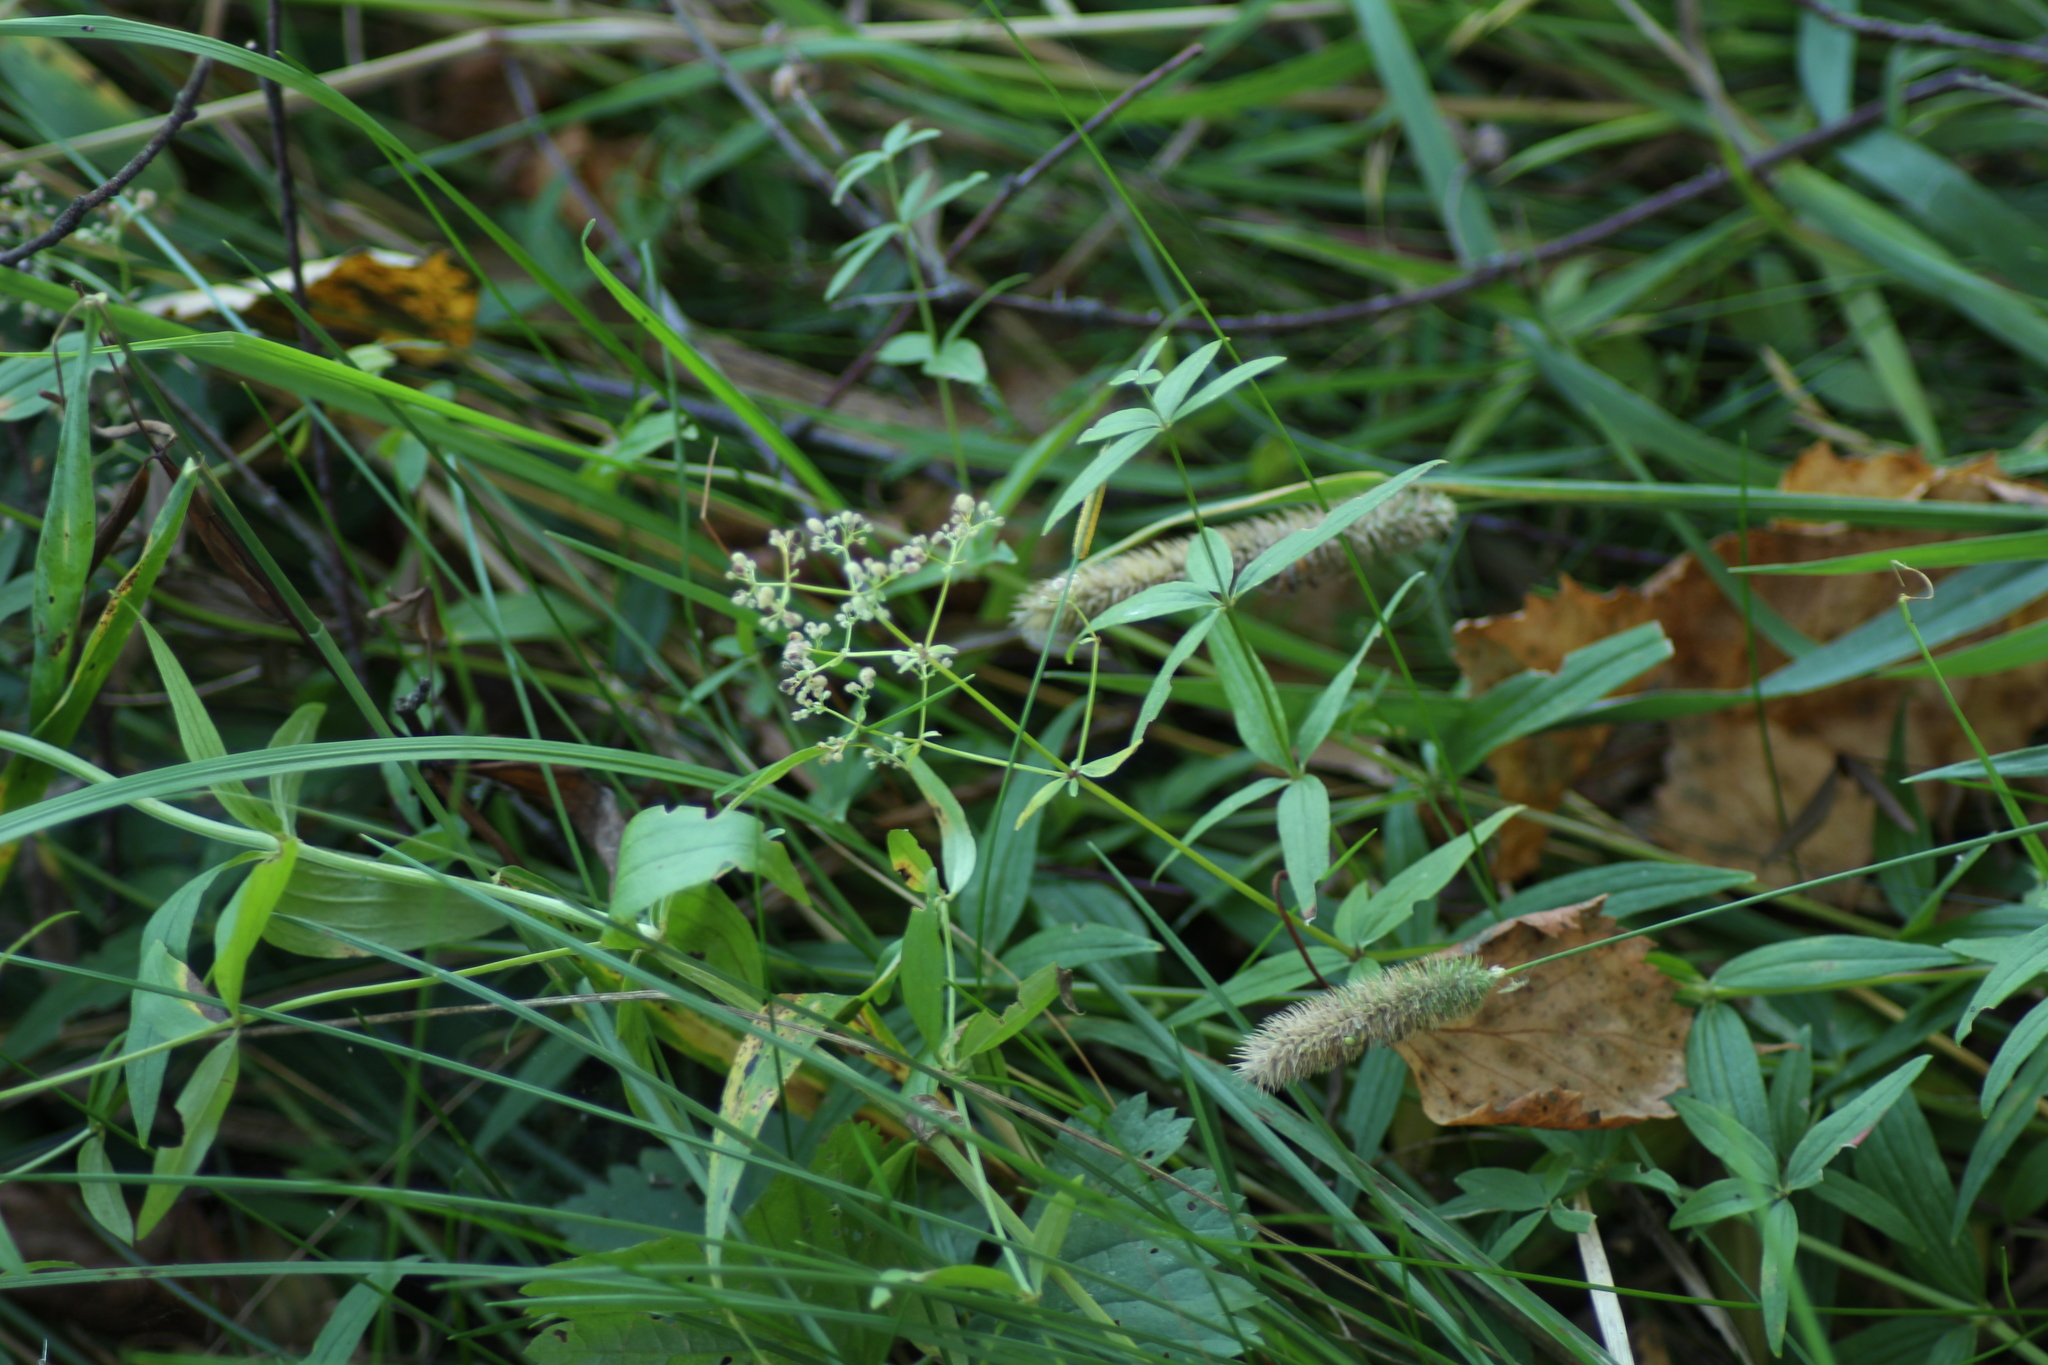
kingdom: Plantae
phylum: Tracheophyta
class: Magnoliopsida
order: Gentianales
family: Rubiaceae
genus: Galium
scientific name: Galium boreale
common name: Northern bedstraw
